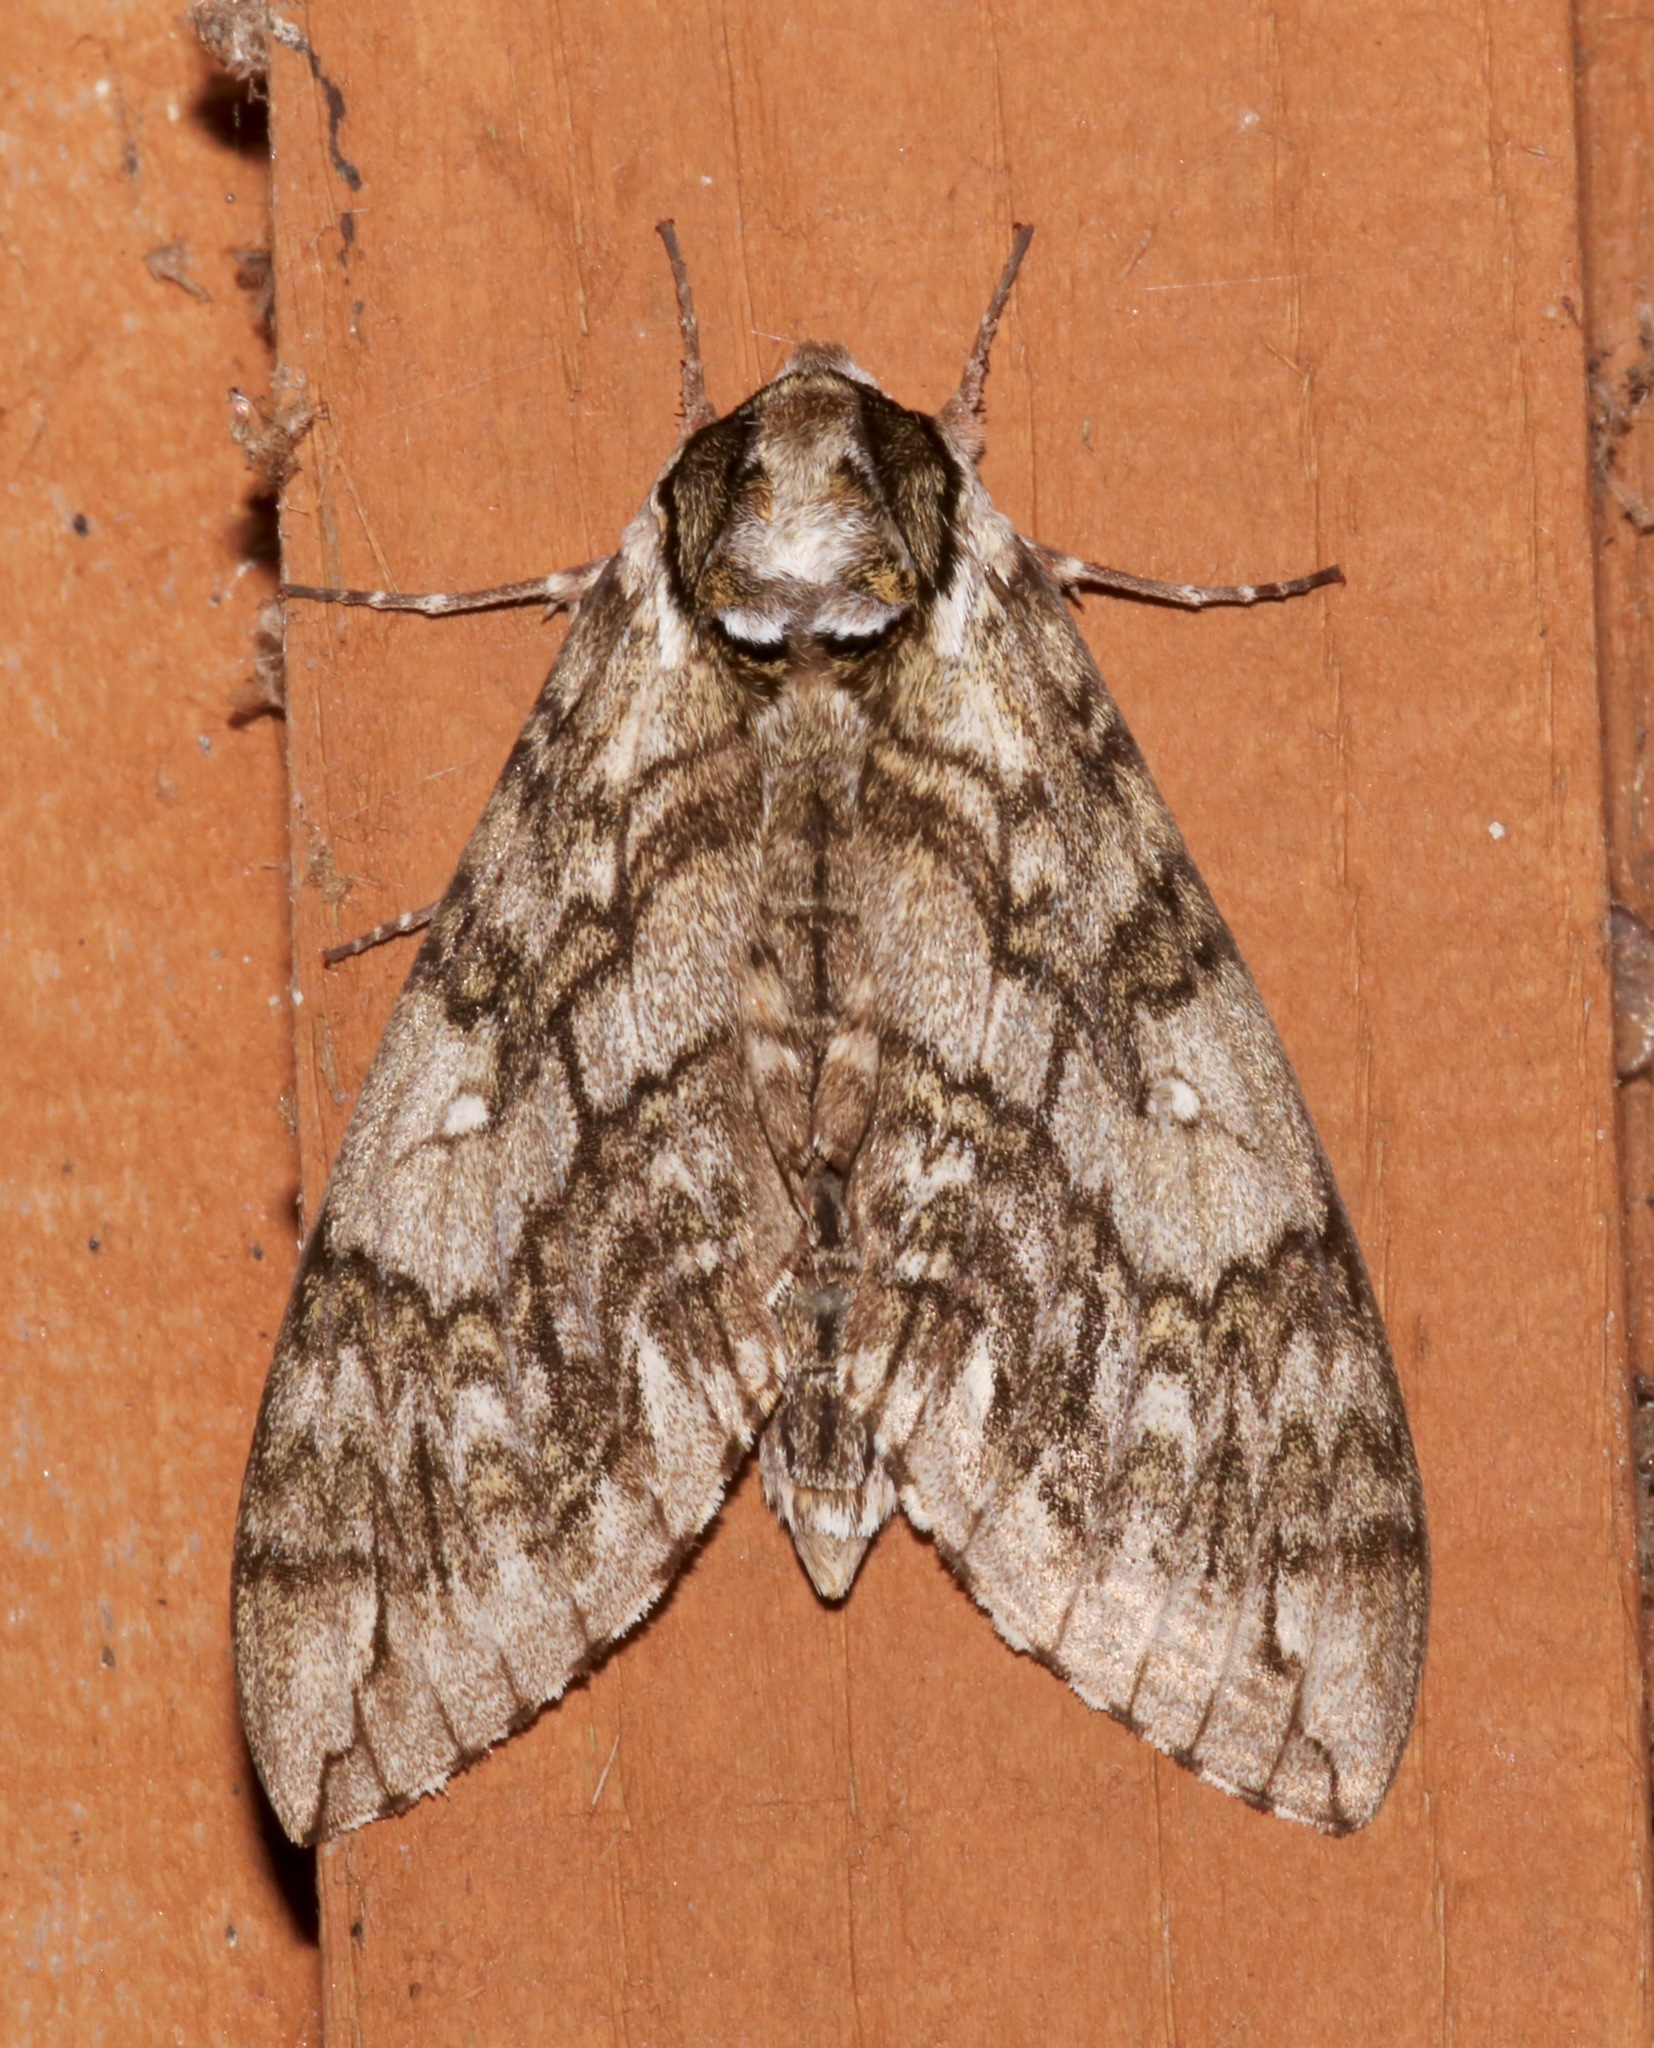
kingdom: Animalia
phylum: Arthropoda
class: Insecta
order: Lepidoptera
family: Sphingidae
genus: Ceratomia
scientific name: Ceratomia undulosa
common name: Waved sphinx
